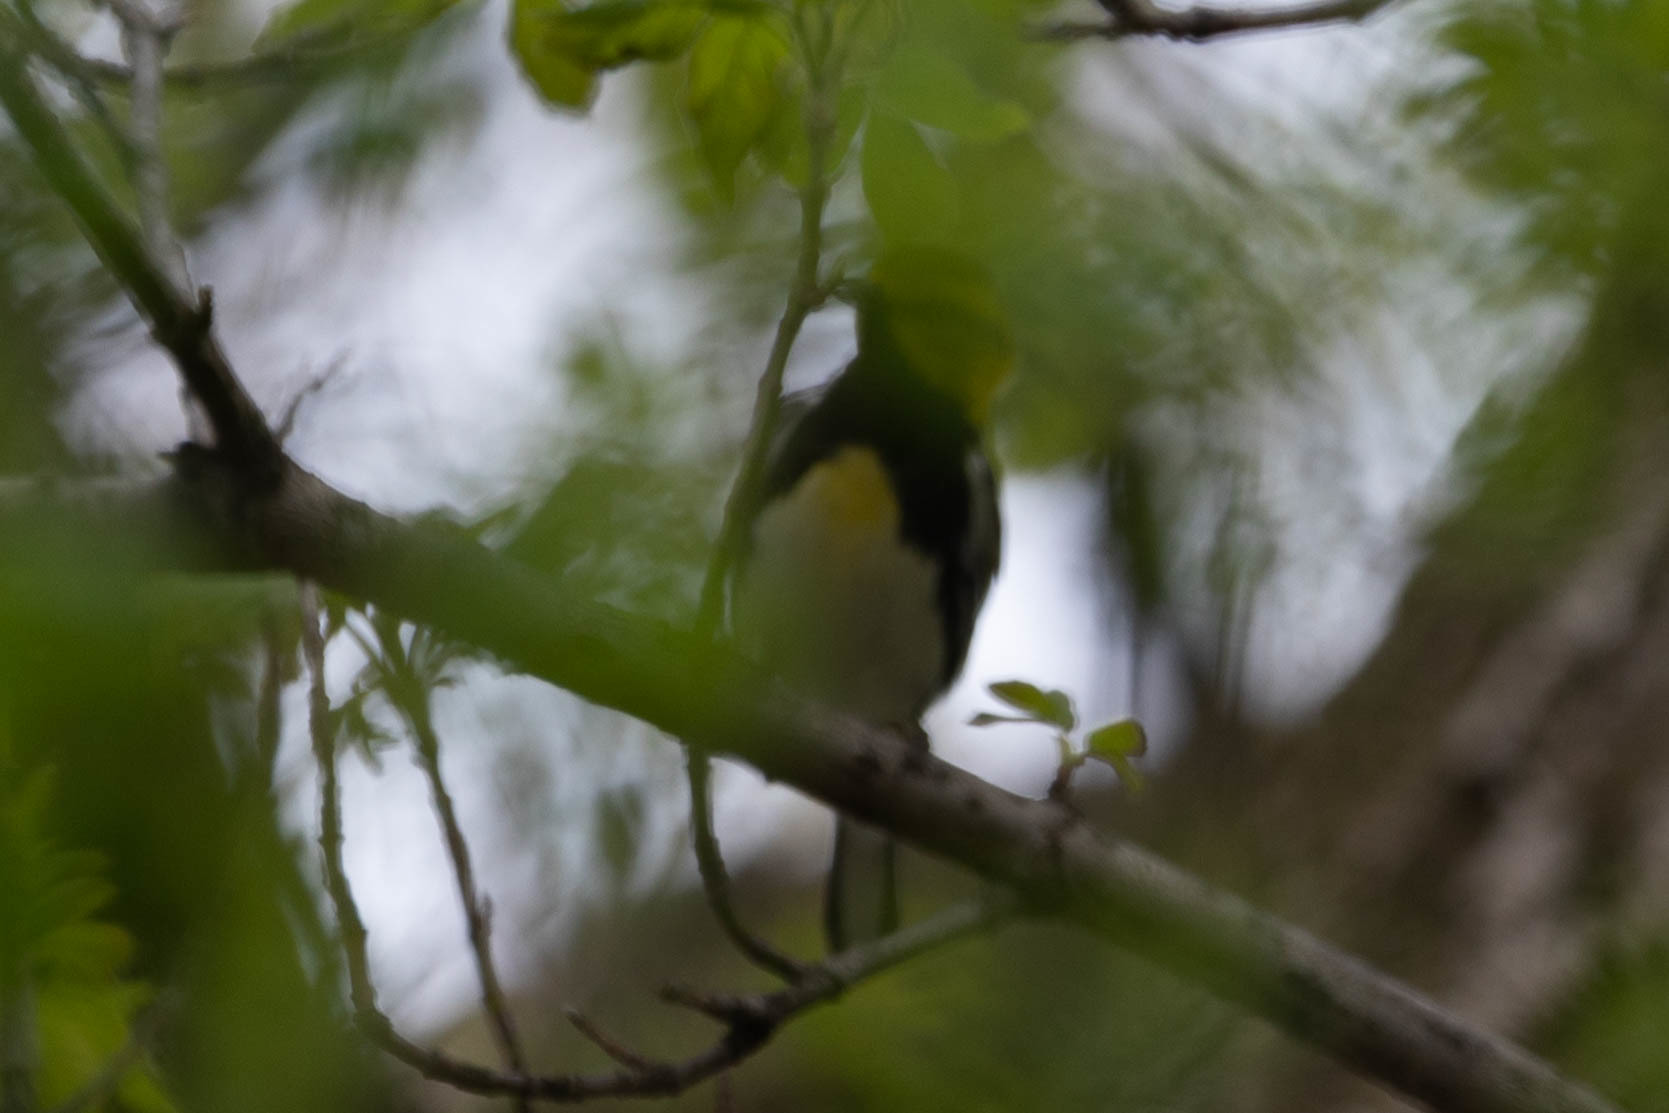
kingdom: Animalia
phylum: Chordata
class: Aves
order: Passeriformes
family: Parulidae
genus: Setophaga
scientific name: Setophaga virens
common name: Black-throated green warbler
